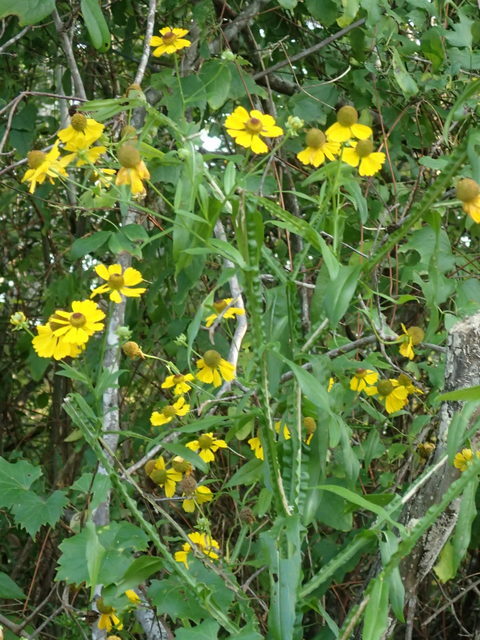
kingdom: Plantae
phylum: Tracheophyta
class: Magnoliopsida
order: Asterales
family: Asteraceae
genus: Helenium
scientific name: Helenium flexuosum
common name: Naked-flowered sneezeweed
